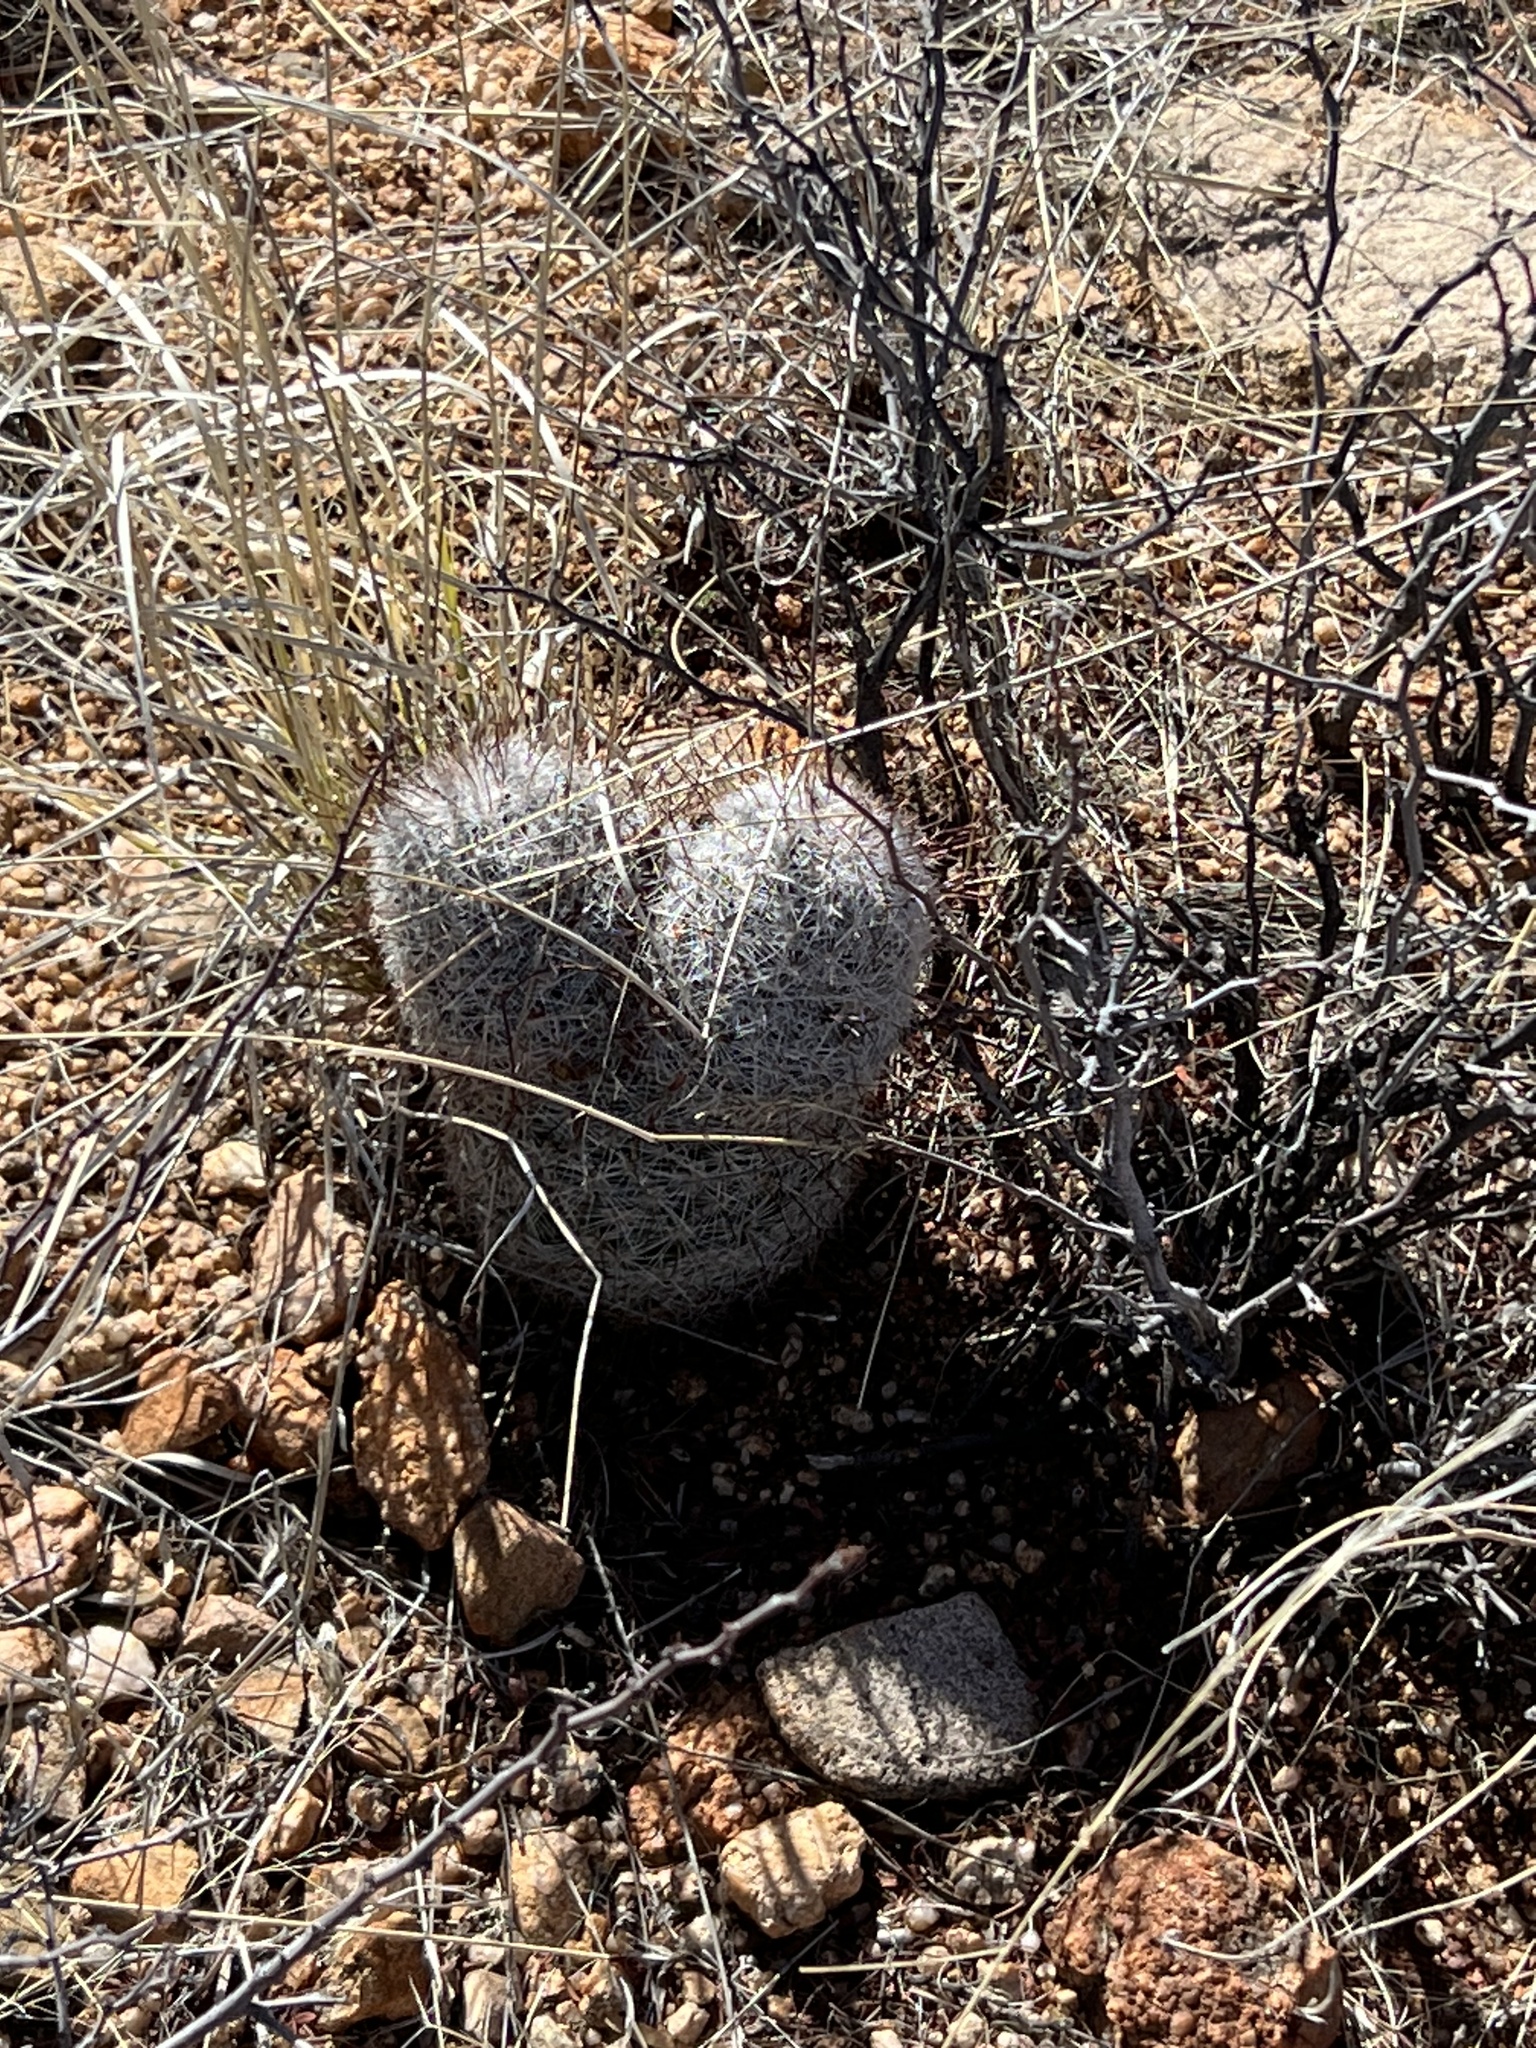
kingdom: Plantae
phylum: Tracheophyta
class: Magnoliopsida
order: Caryophyllales
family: Cactaceae
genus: Cochemiea
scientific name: Cochemiea grahamii
